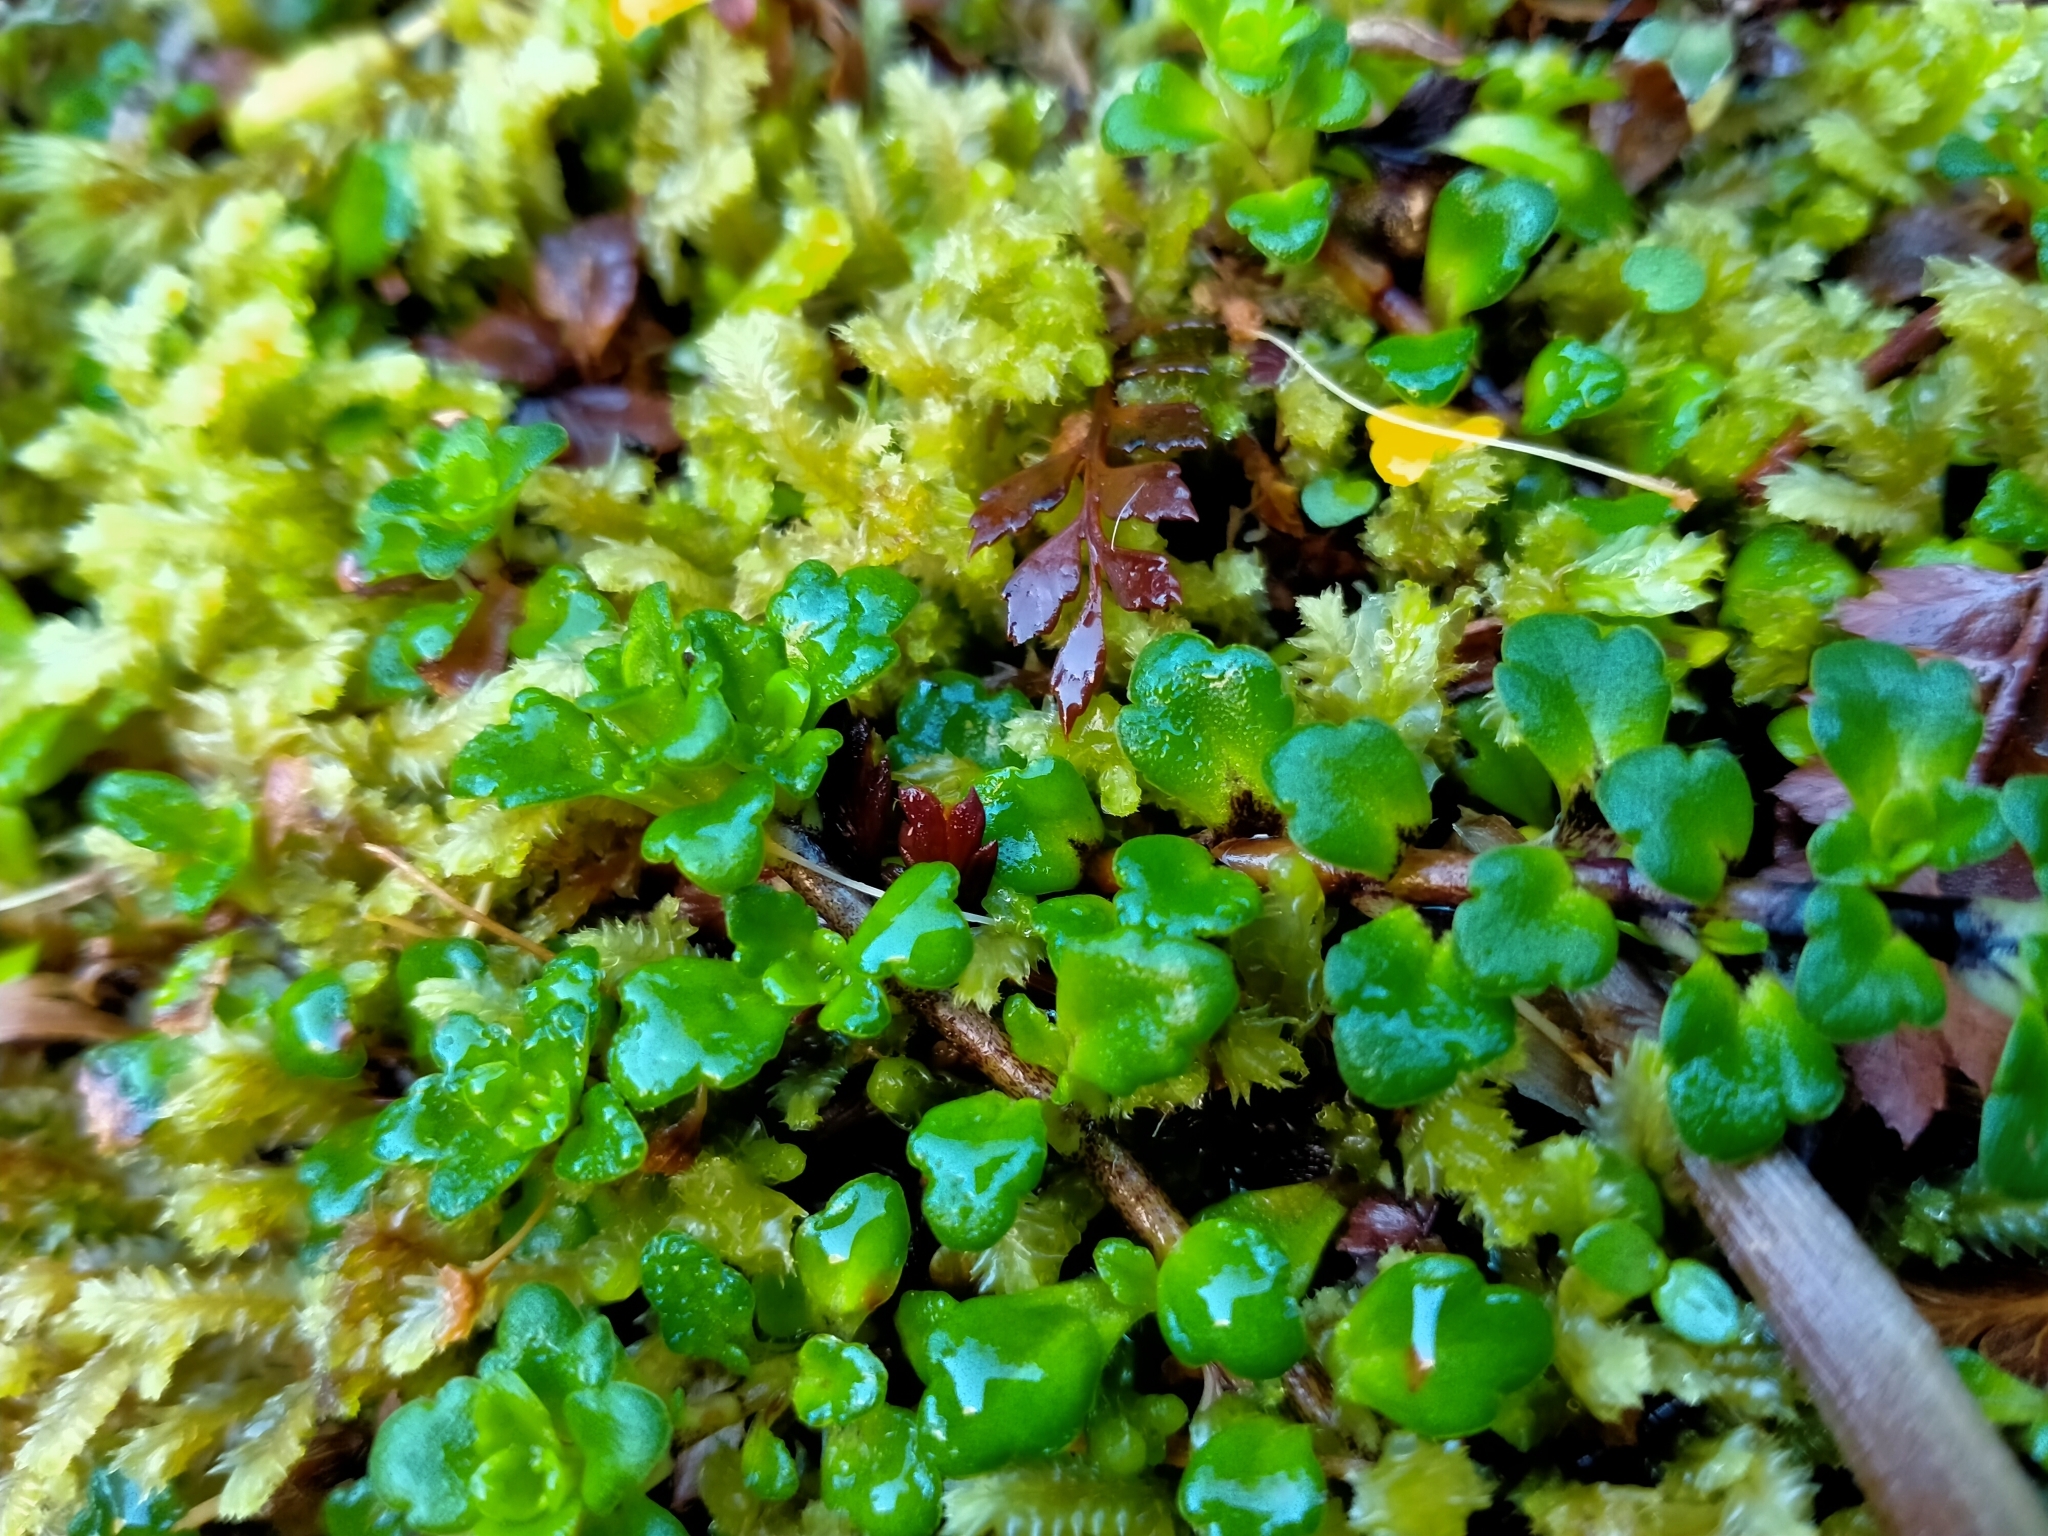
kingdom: Plantae
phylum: Tracheophyta
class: Magnoliopsida
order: Lamiales
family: Plantaginaceae
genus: Ourisia
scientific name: Ourisia caespitosa
